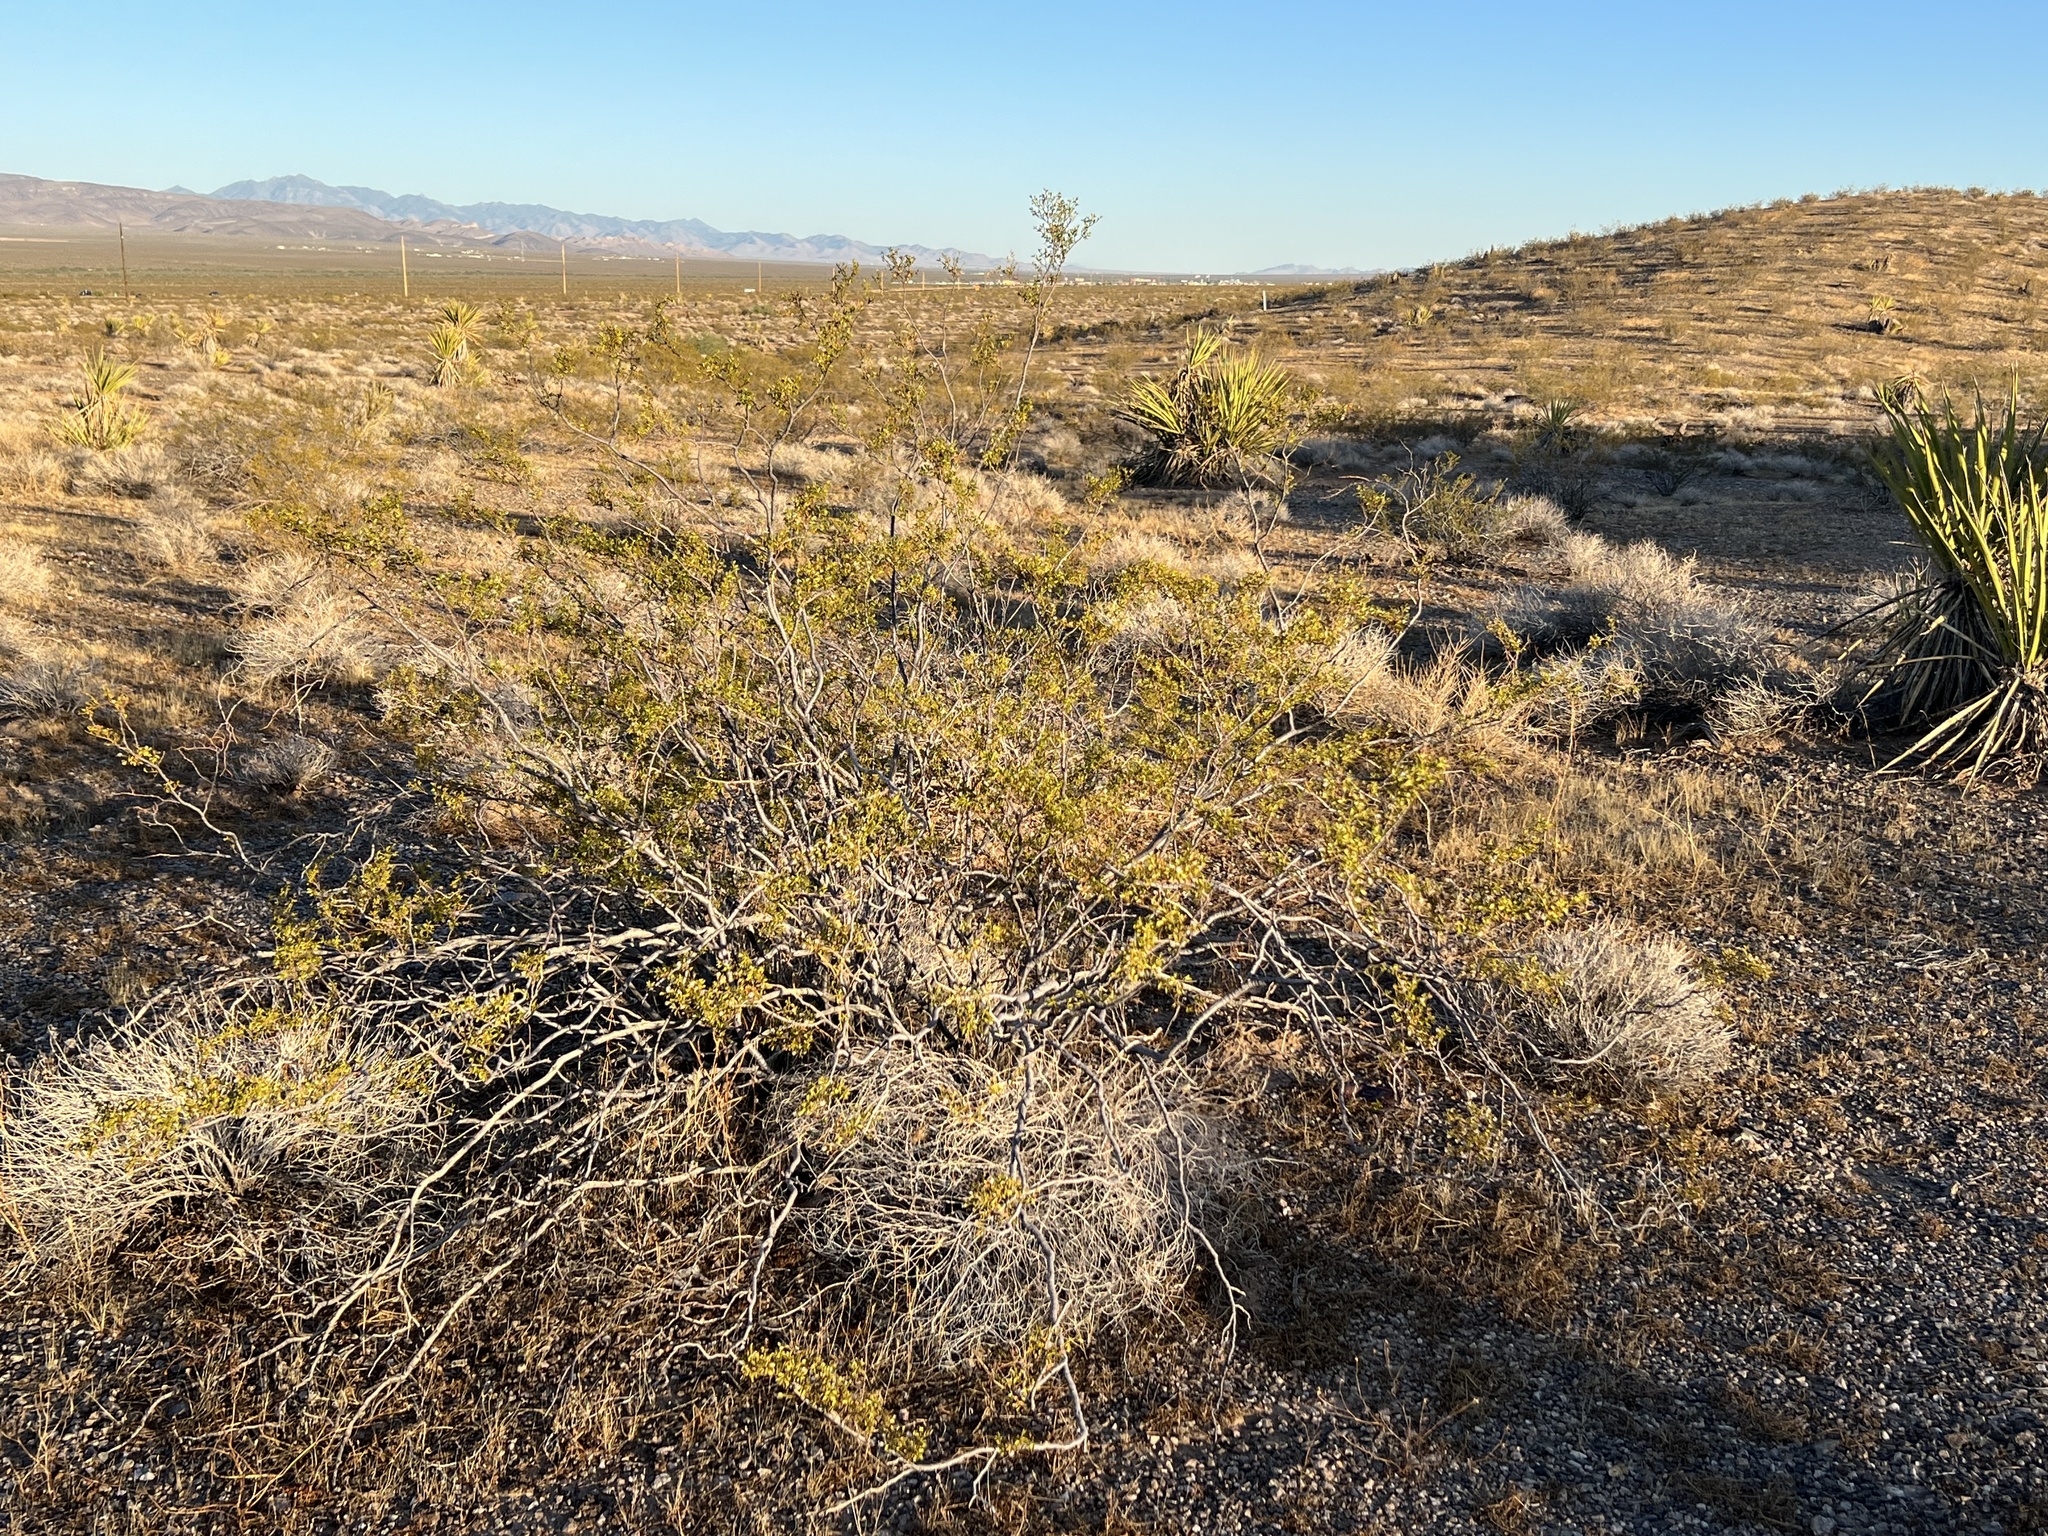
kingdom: Plantae
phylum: Tracheophyta
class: Magnoliopsida
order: Zygophyllales
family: Zygophyllaceae
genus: Larrea
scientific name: Larrea tridentata
